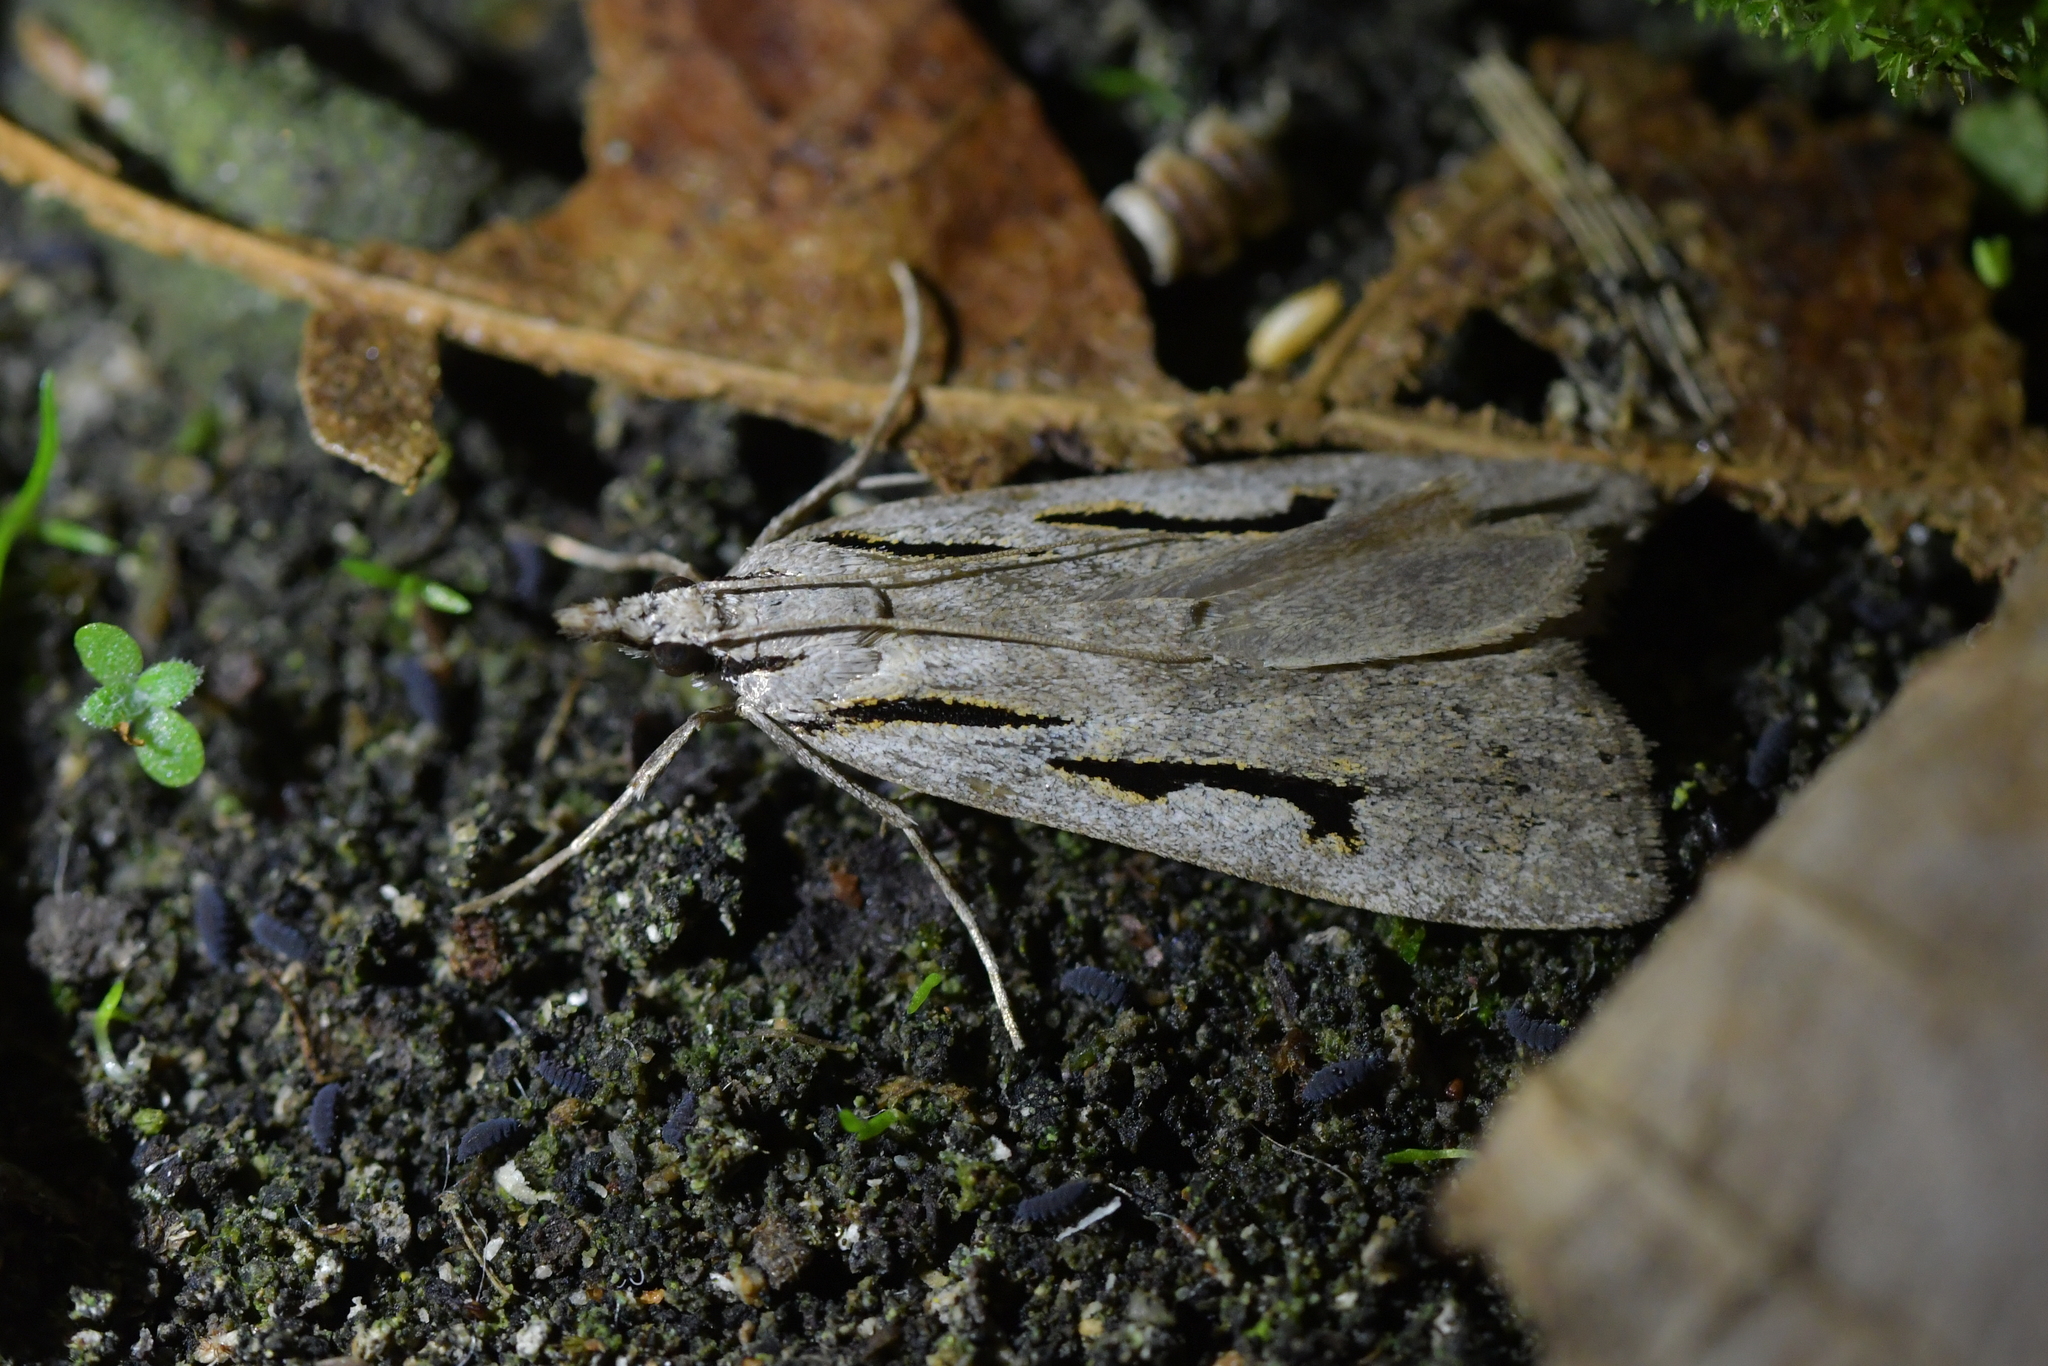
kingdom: Animalia
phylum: Arthropoda
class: Insecta
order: Lepidoptera
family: Crambidae
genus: Scoparia
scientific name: Scoparia rotuellus
